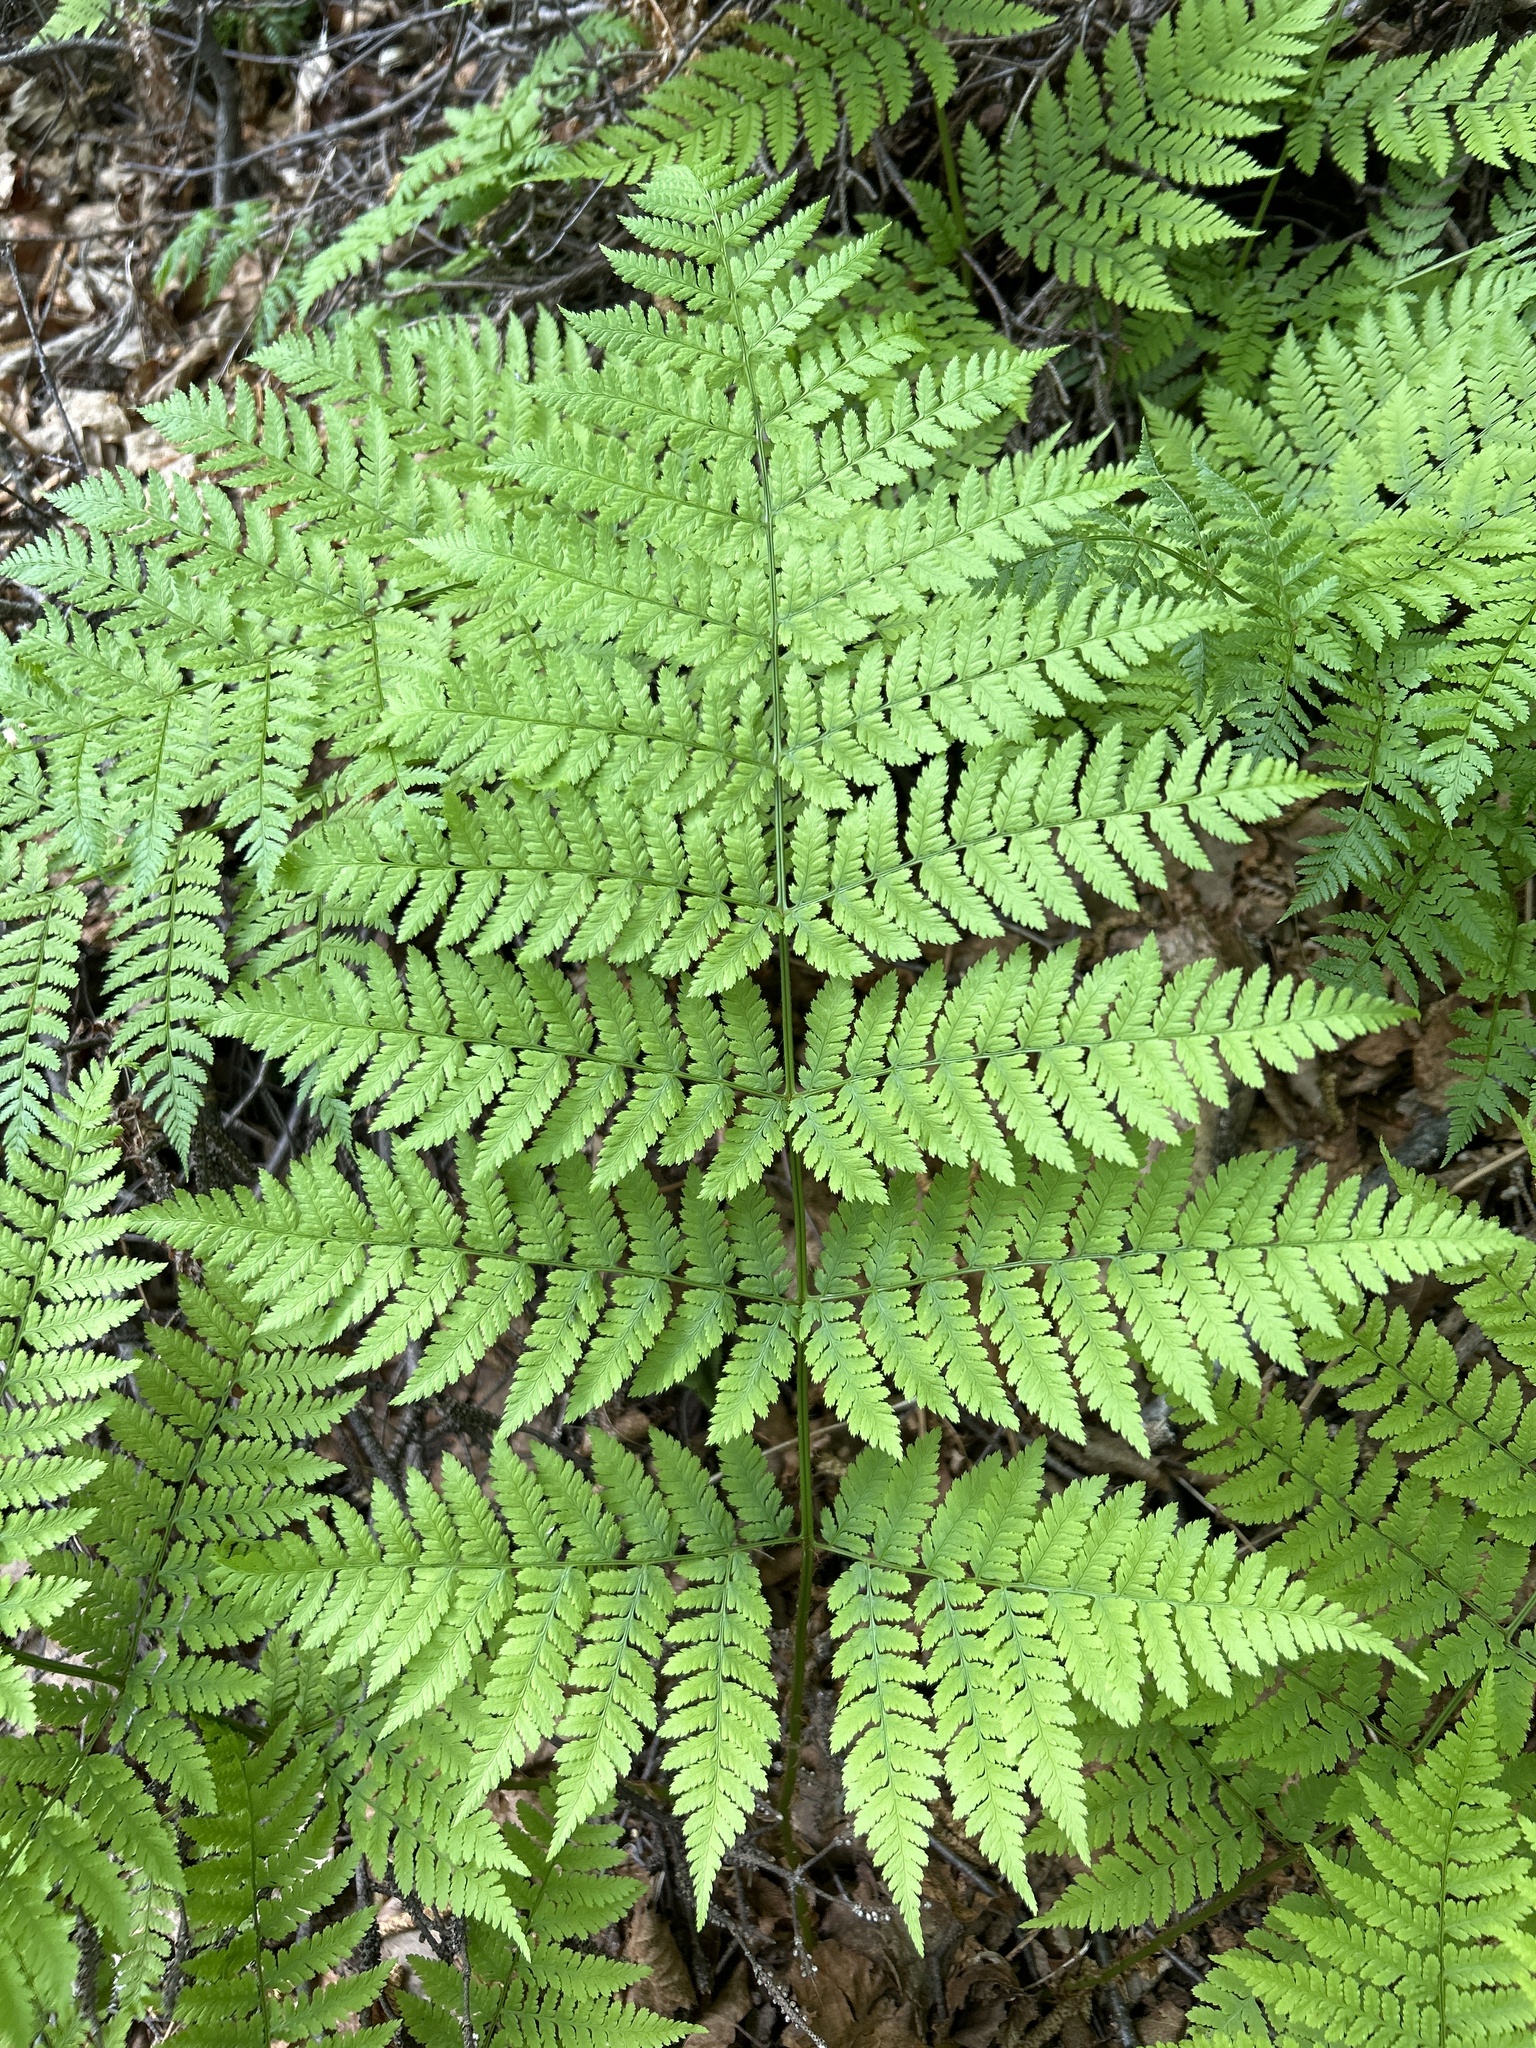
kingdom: Plantae
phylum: Tracheophyta
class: Polypodiopsida
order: Polypodiales
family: Dryopteridaceae
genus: Dryopteris
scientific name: Dryopteris expansa
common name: Northern buckler fern
